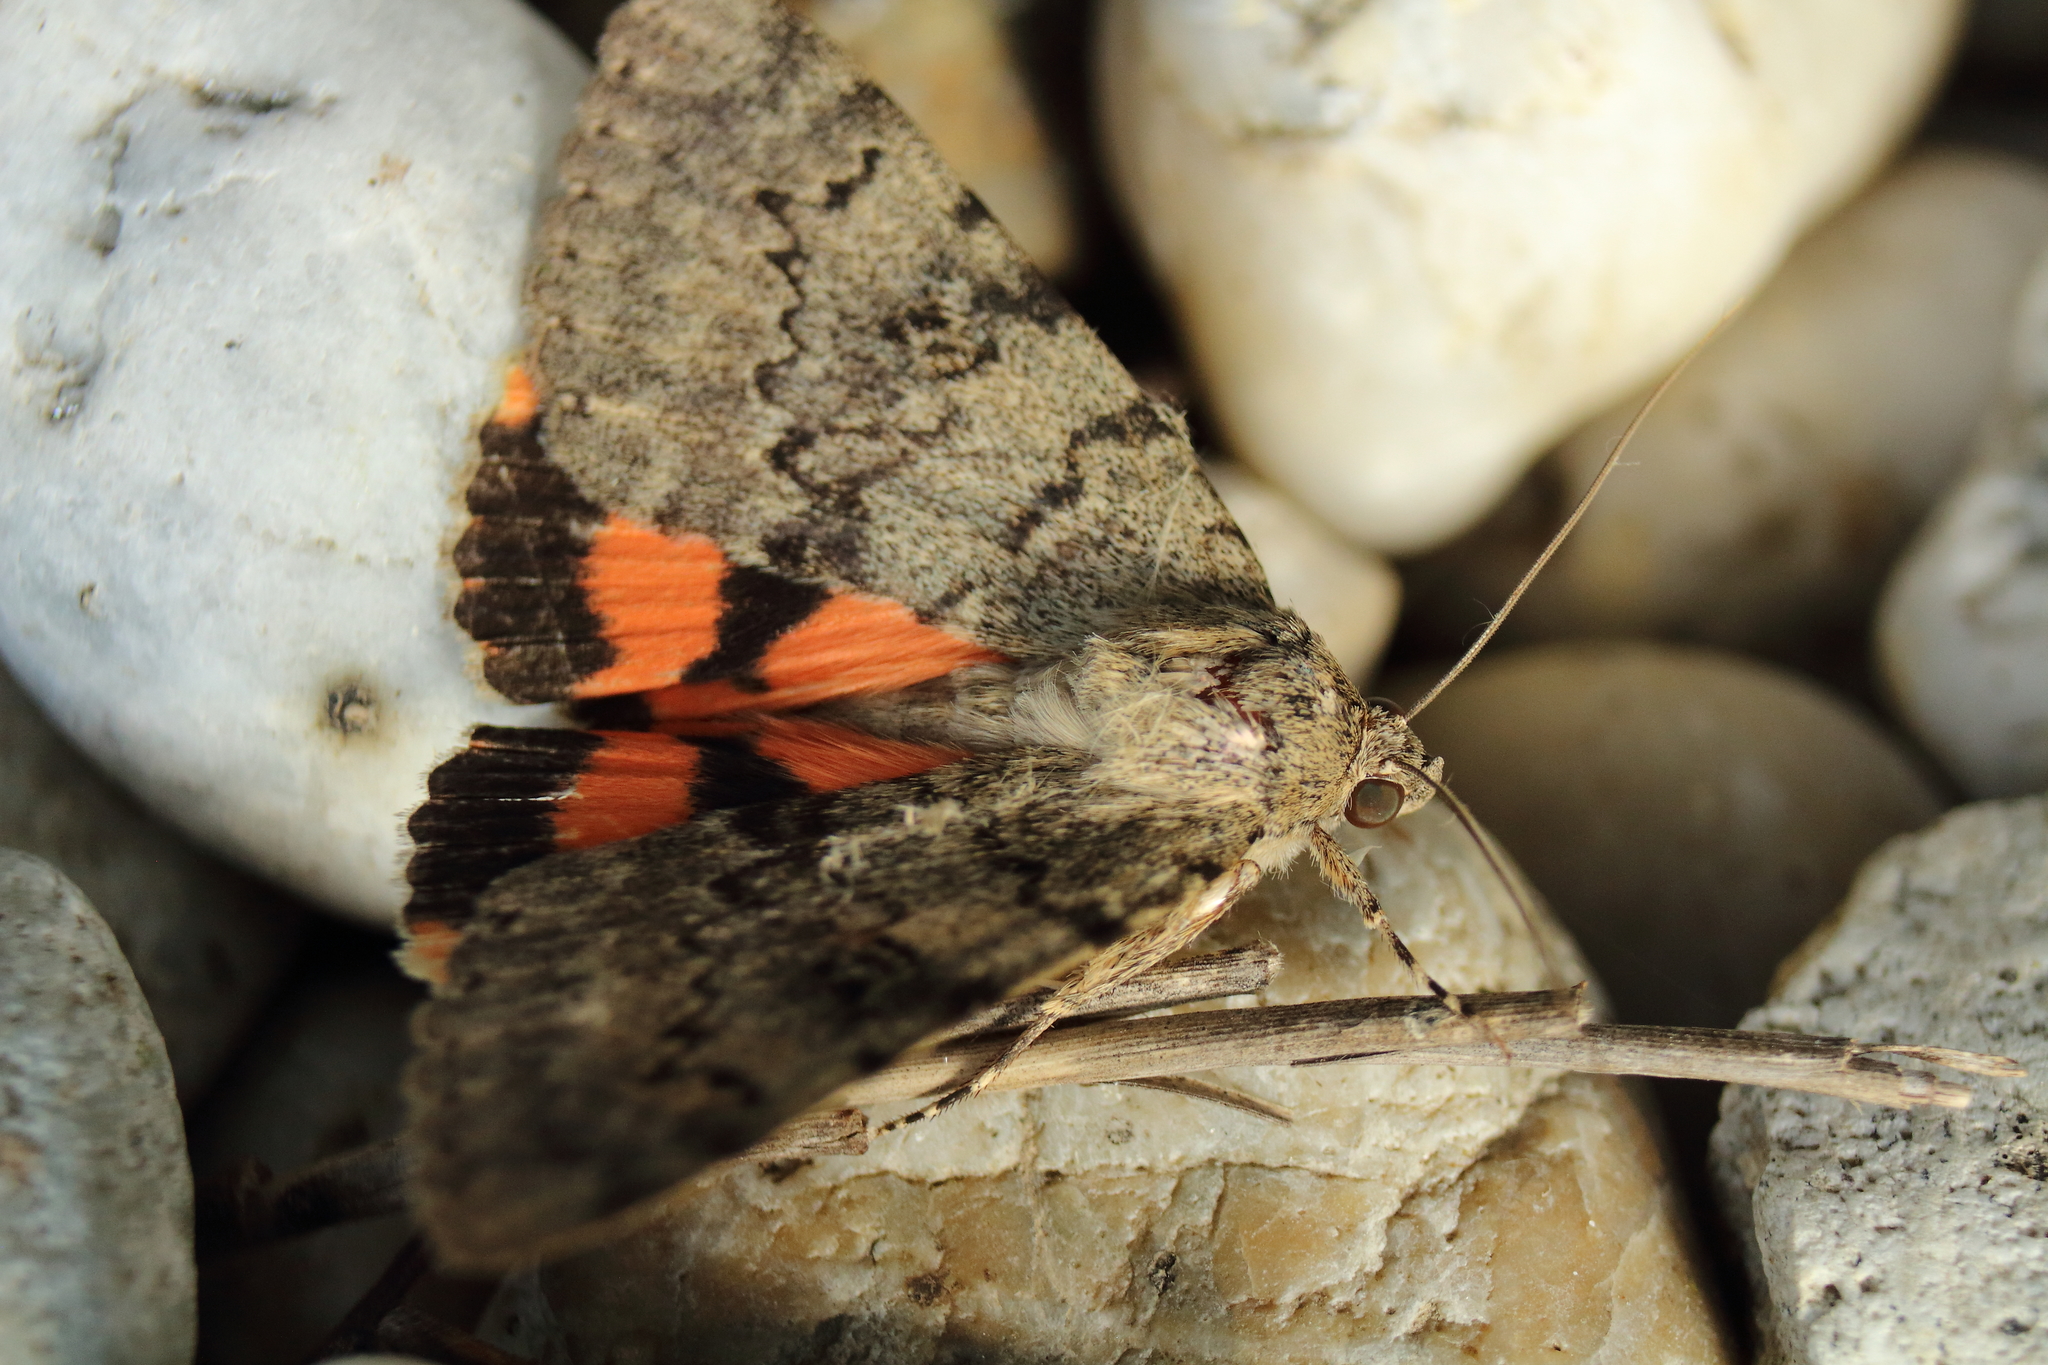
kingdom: Animalia
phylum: Arthropoda
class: Insecta
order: Lepidoptera
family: Erebidae
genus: Catocala
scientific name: Catocala puerpera
